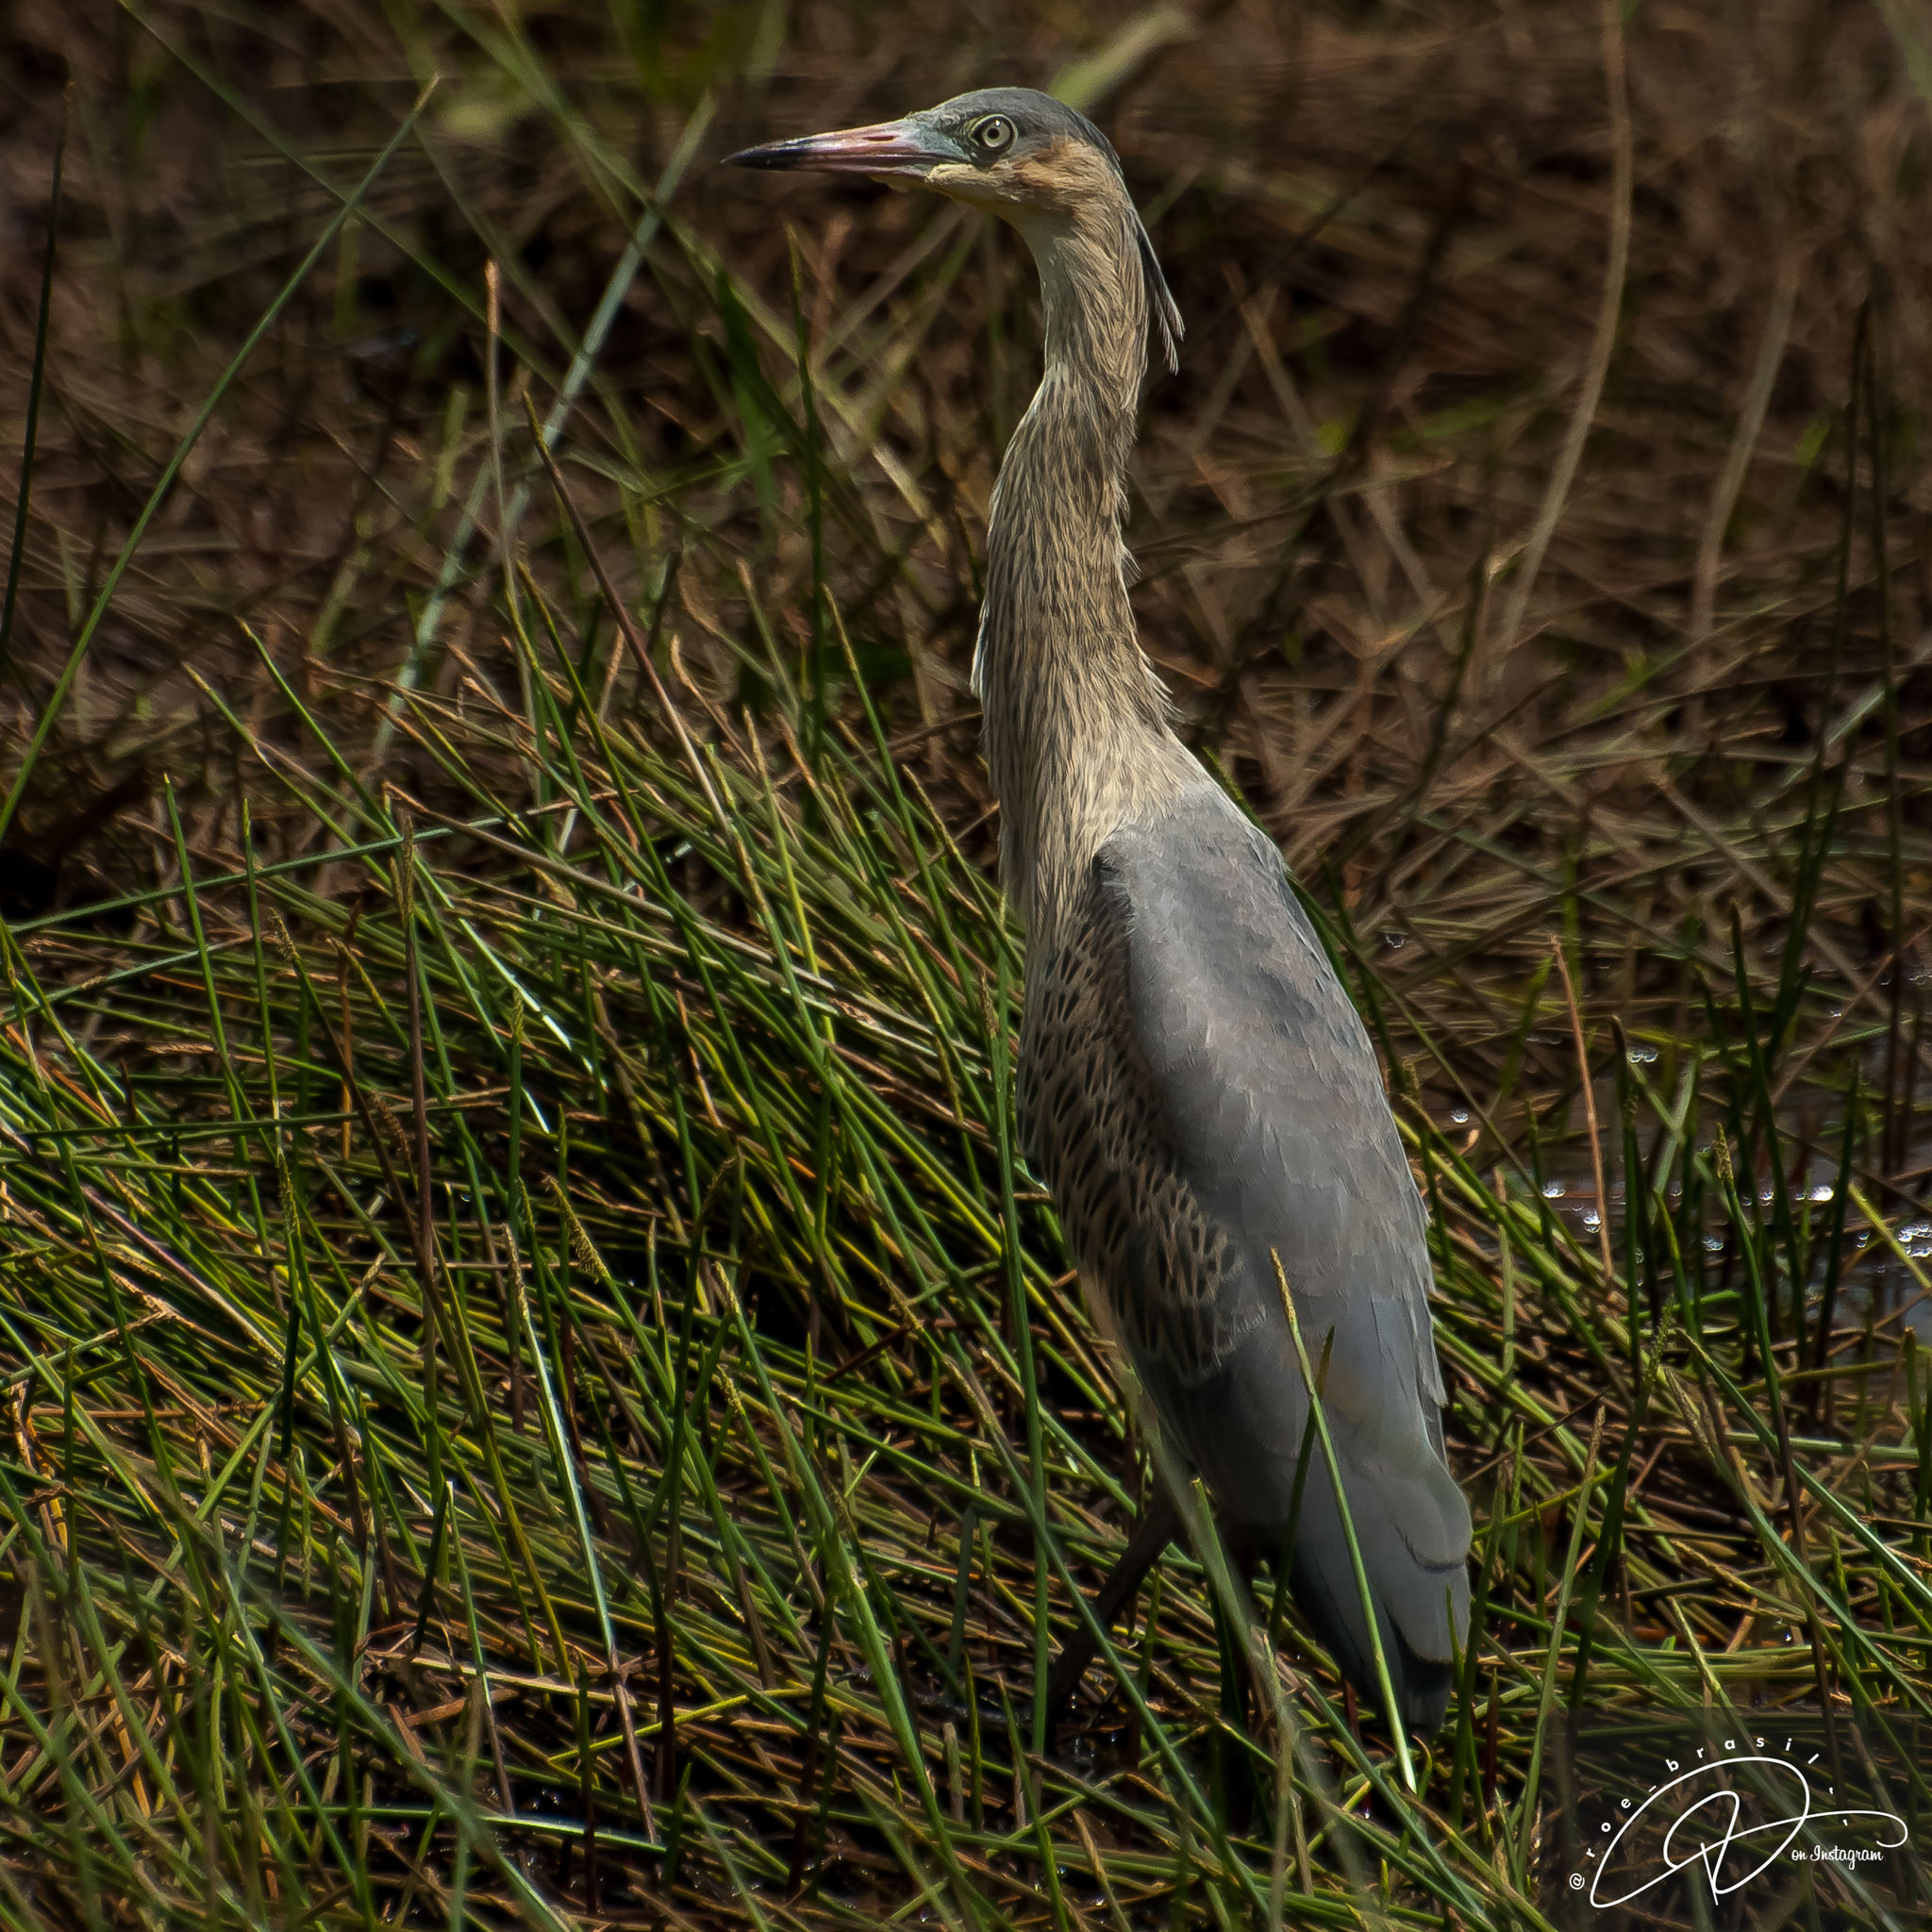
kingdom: Animalia
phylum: Chordata
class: Aves
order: Pelecaniformes
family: Ardeidae
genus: Syrigma
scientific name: Syrigma sibilatrix
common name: Whistling heron
